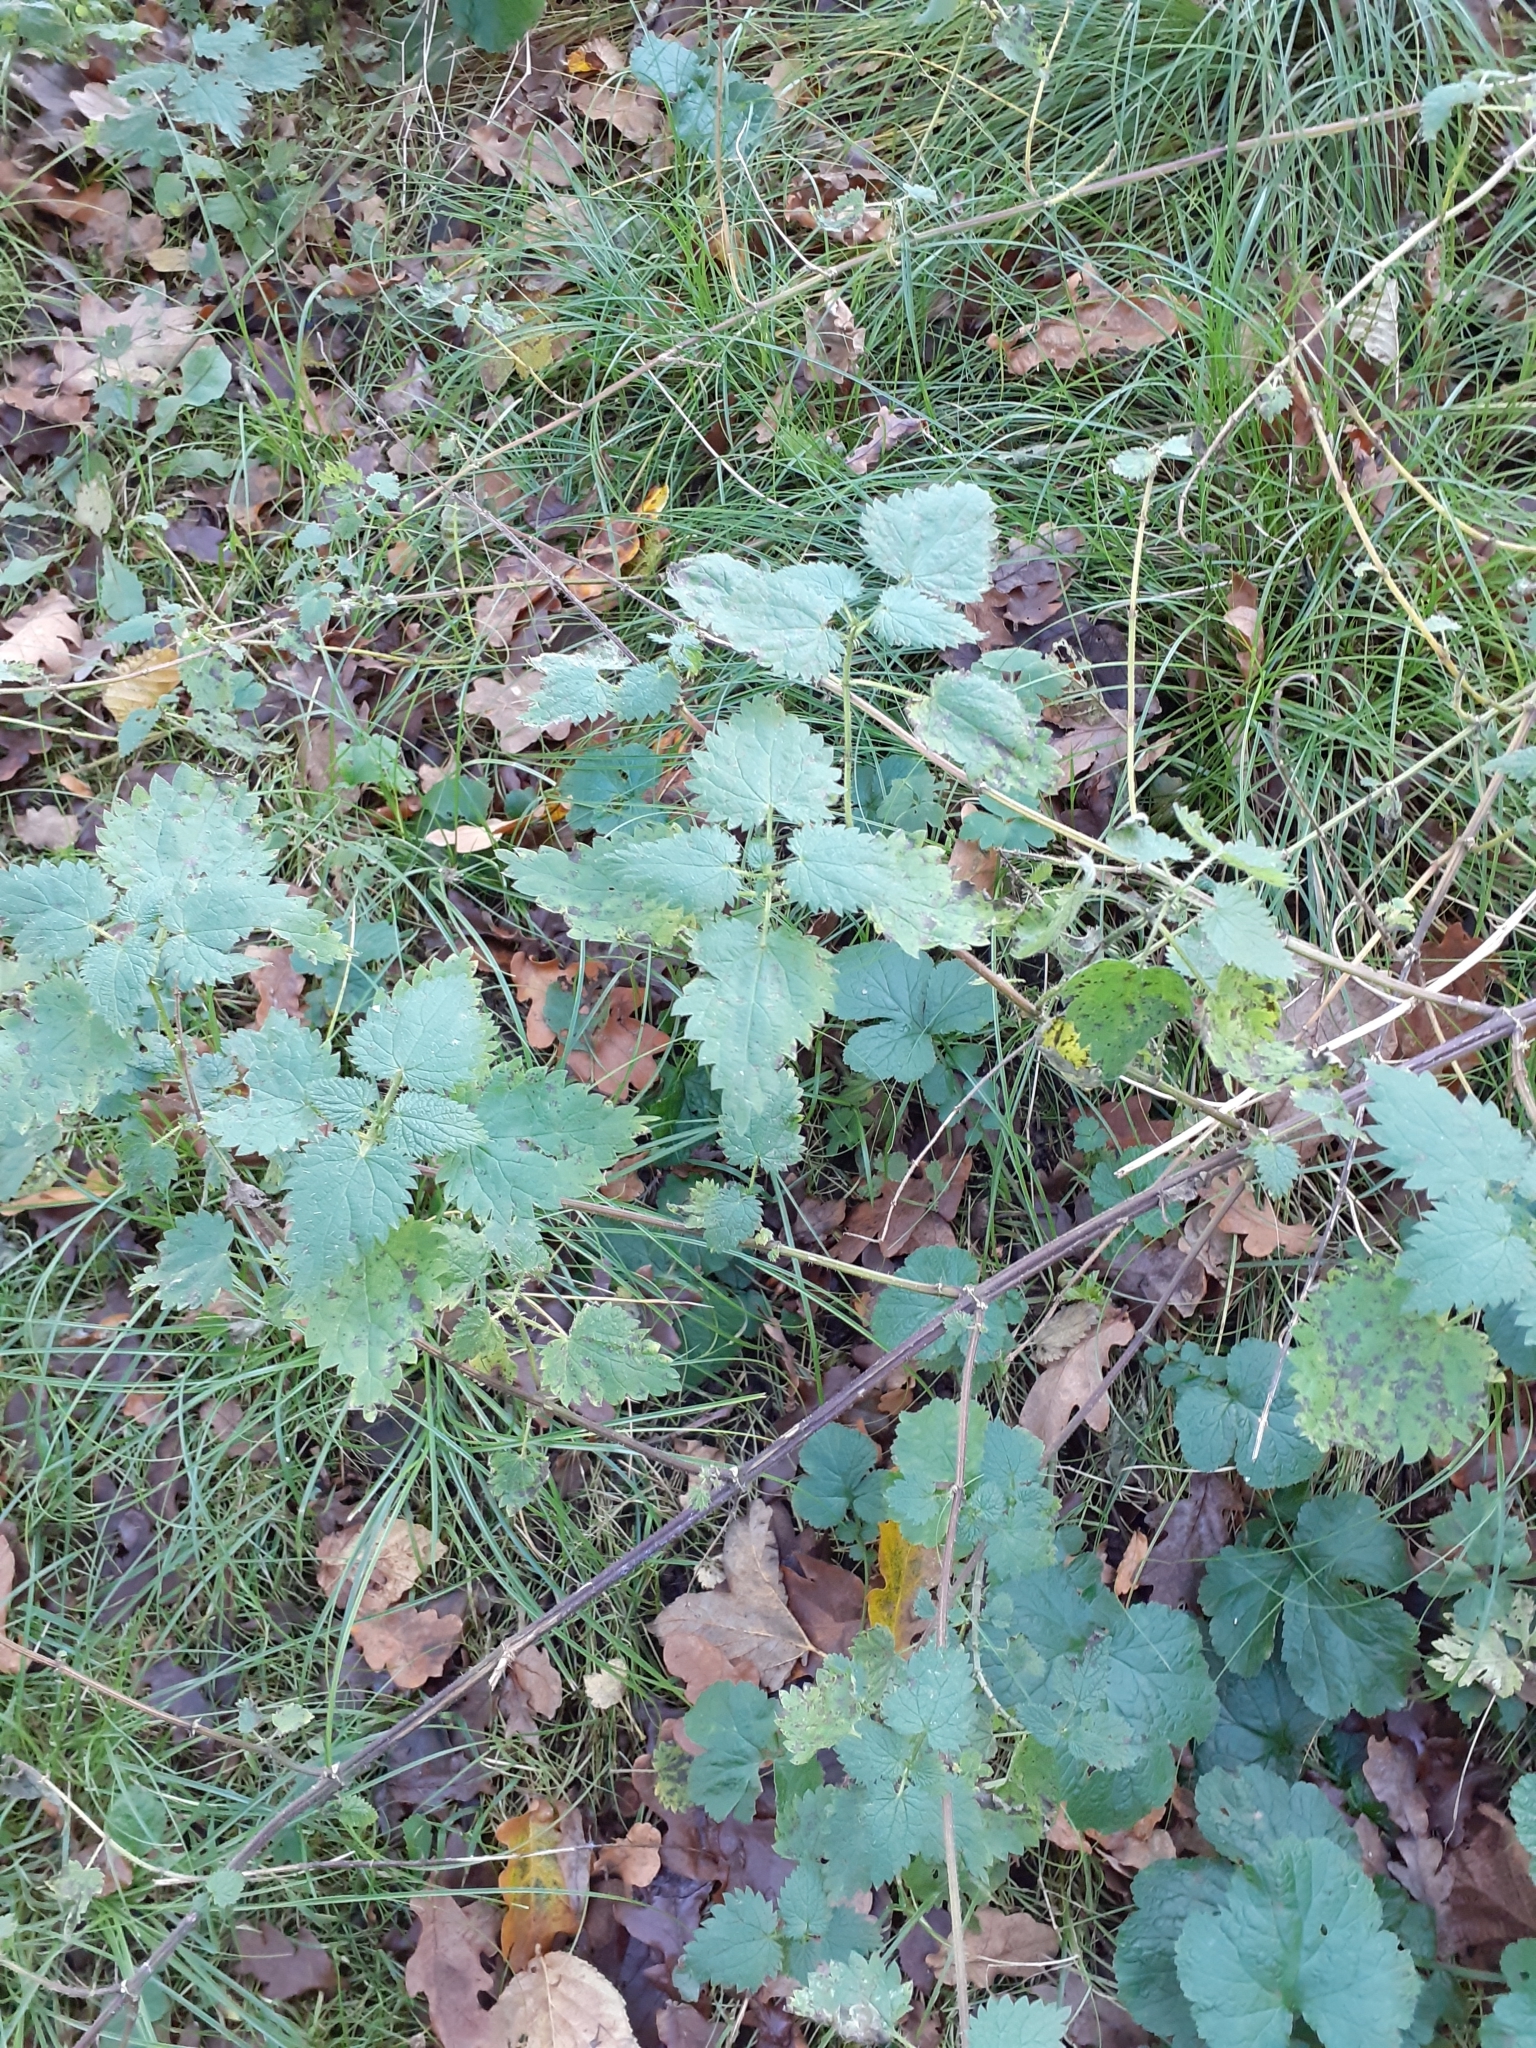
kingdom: Plantae
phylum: Tracheophyta
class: Magnoliopsida
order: Rosales
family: Urticaceae
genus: Urtica
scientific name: Urtica dioica
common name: Common nettle
